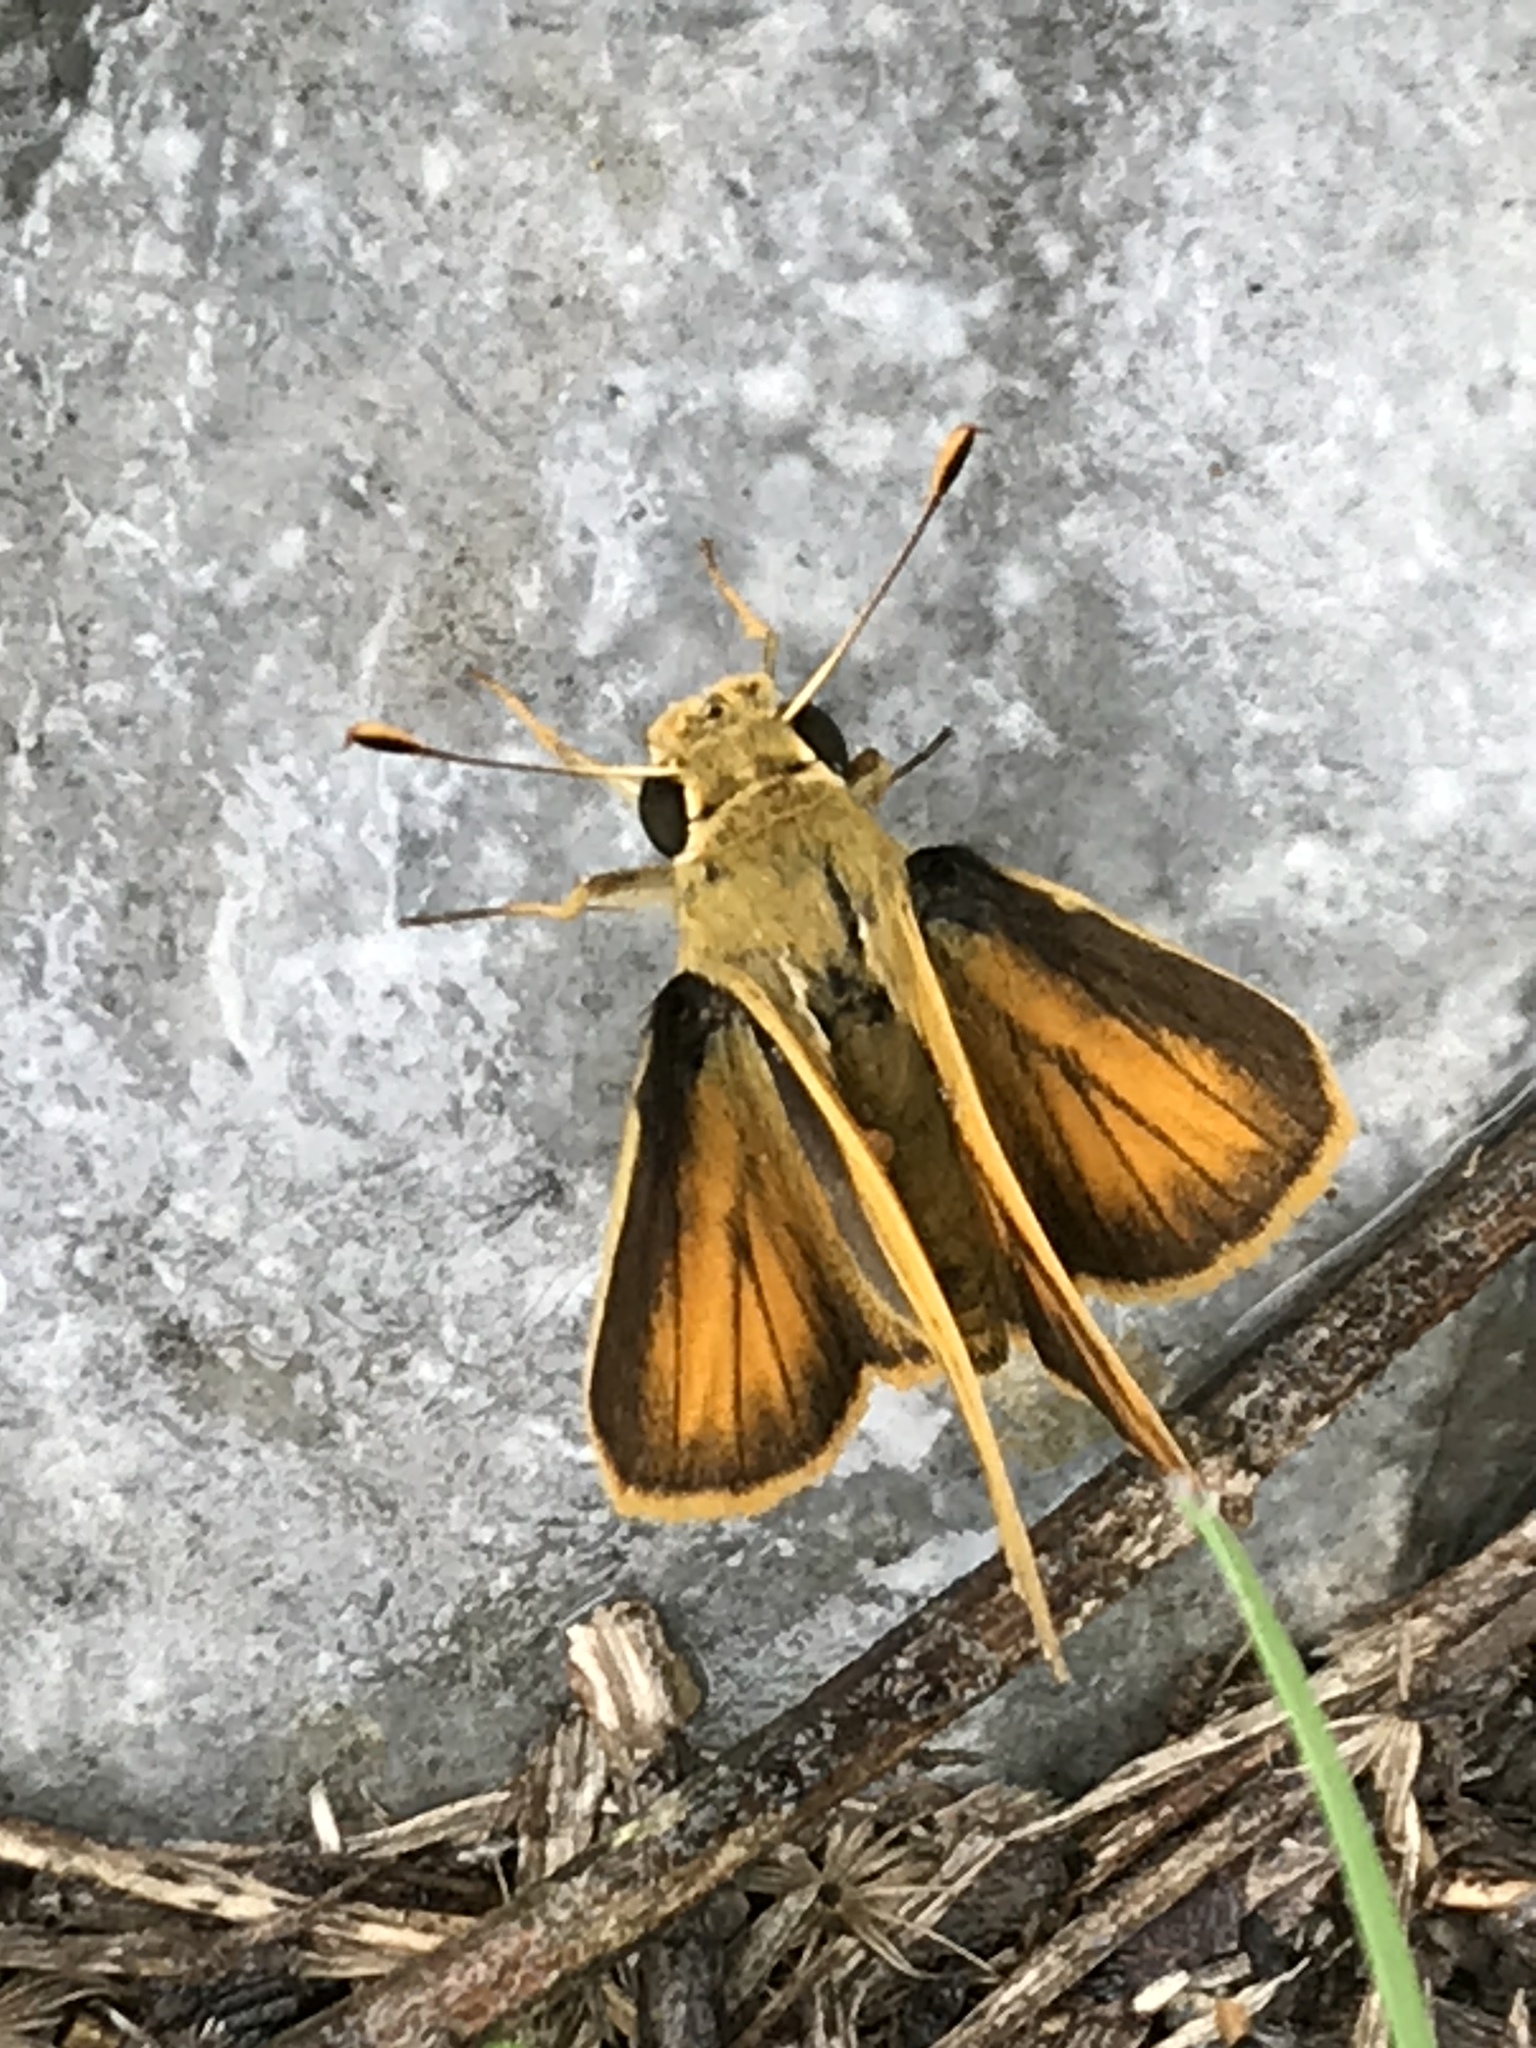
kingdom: Animalia
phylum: Arthropoda
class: Insecta
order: Lepidoptera
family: Hesperiidae
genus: Polites
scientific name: Polites vibex
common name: Whirlabout
